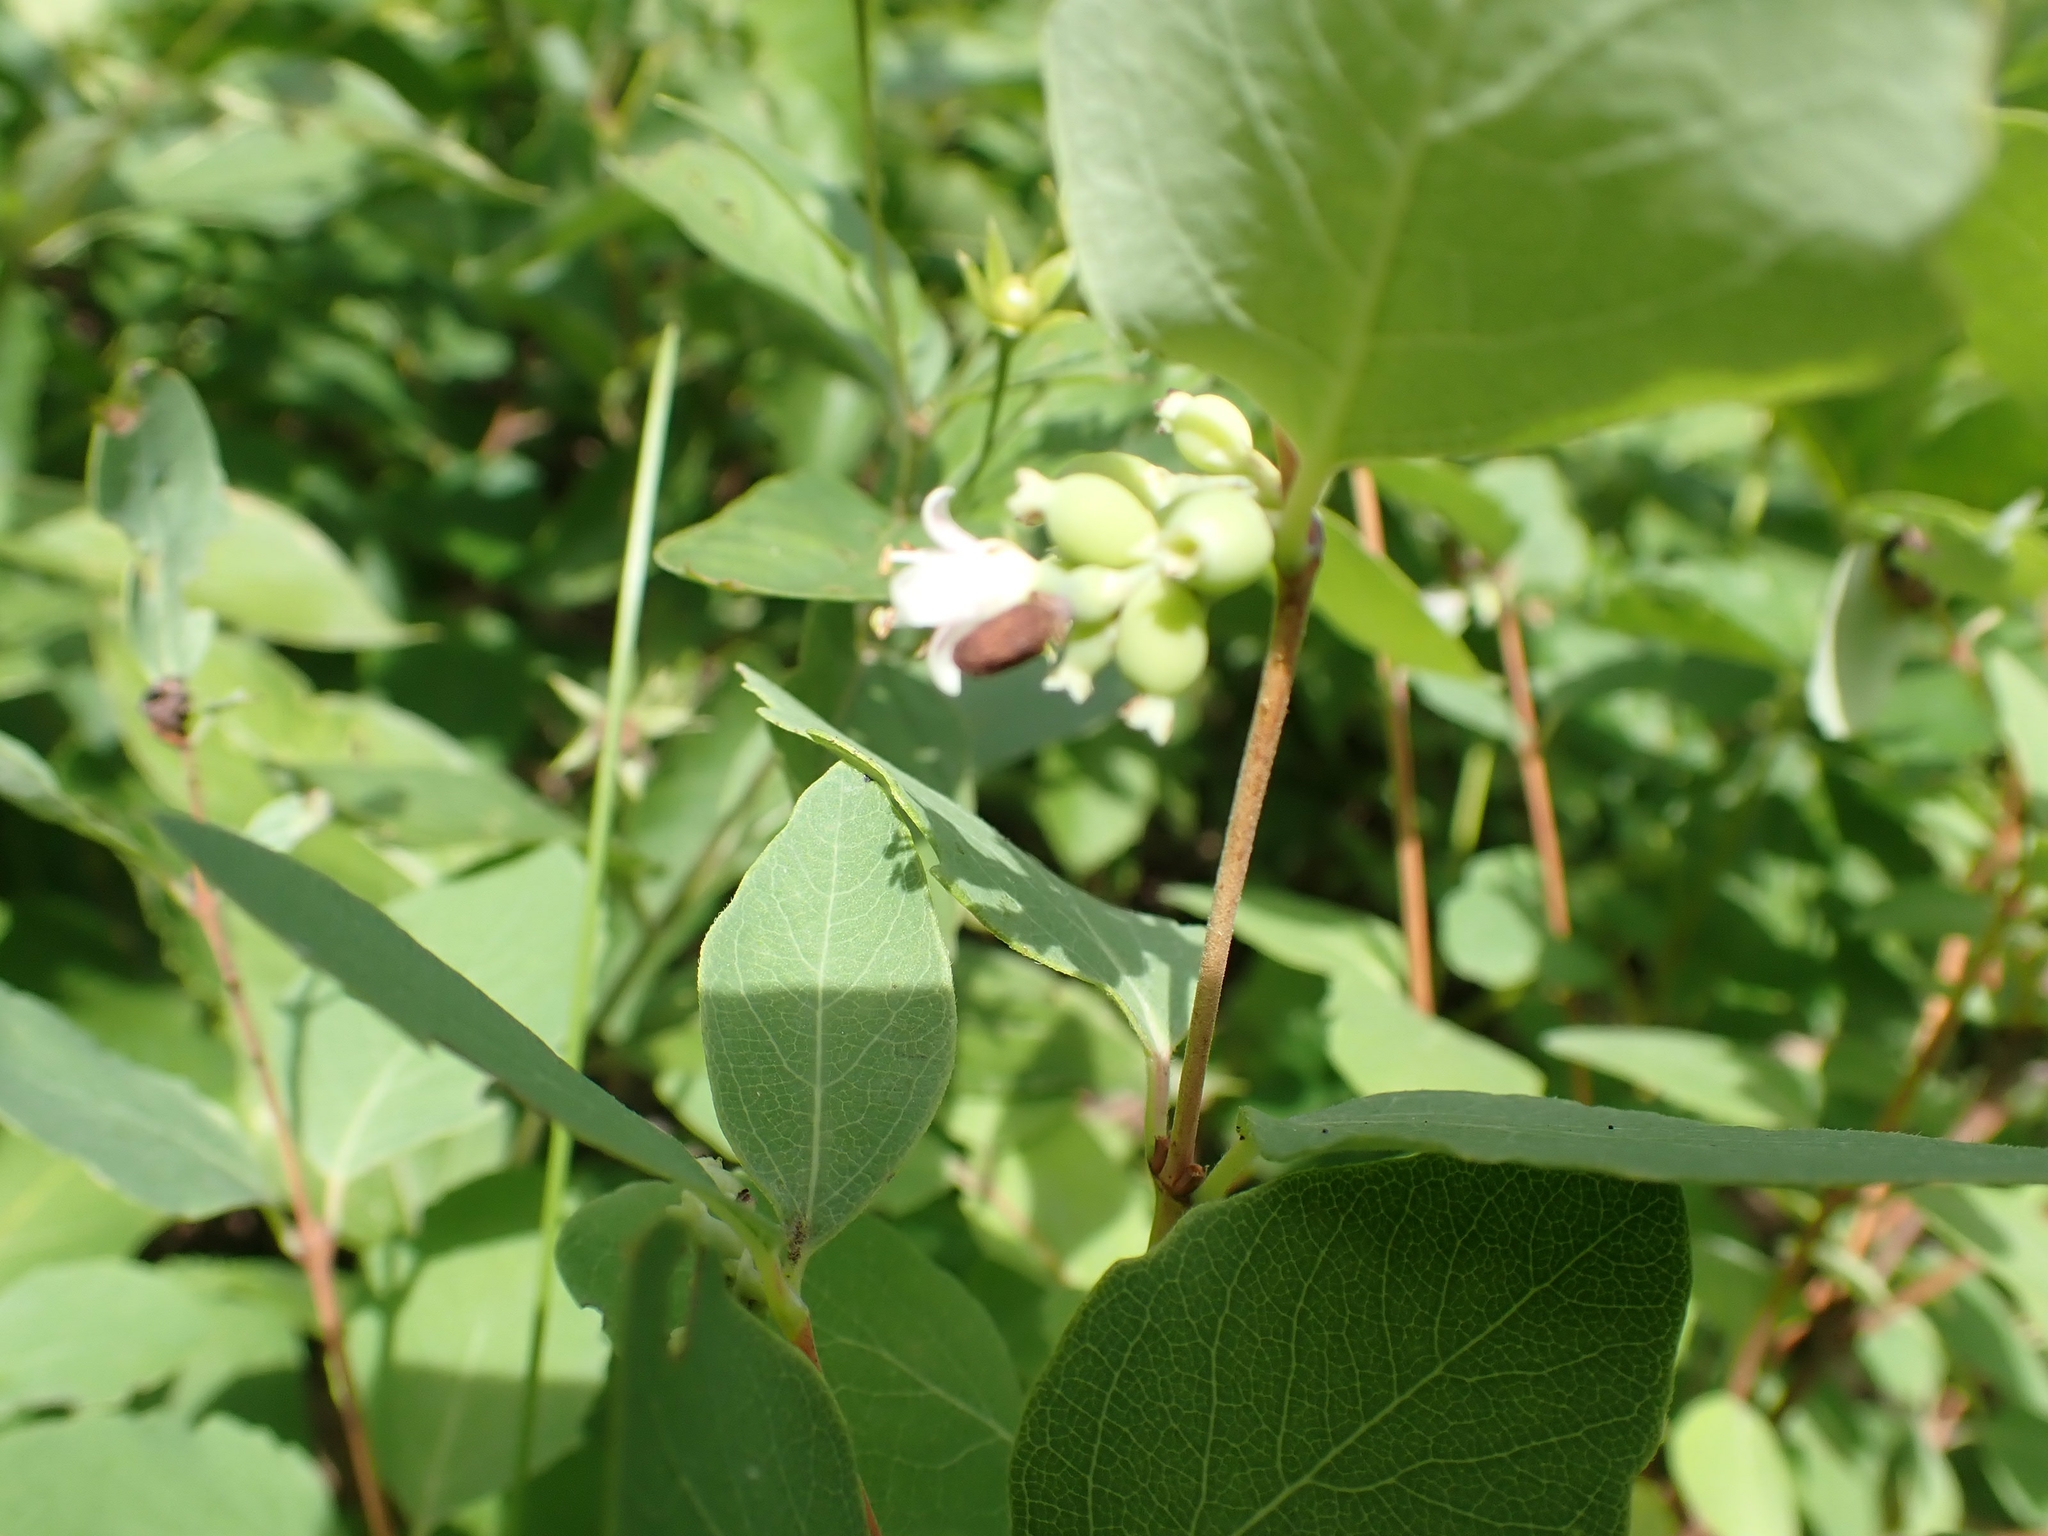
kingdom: Plantae
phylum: Tracheophyta
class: Magnoliopsida
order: Dipsacales
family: Caprifoliaceae
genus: Symphoricarpos
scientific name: Symphoricarpos occidentalis
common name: Wolfberry
